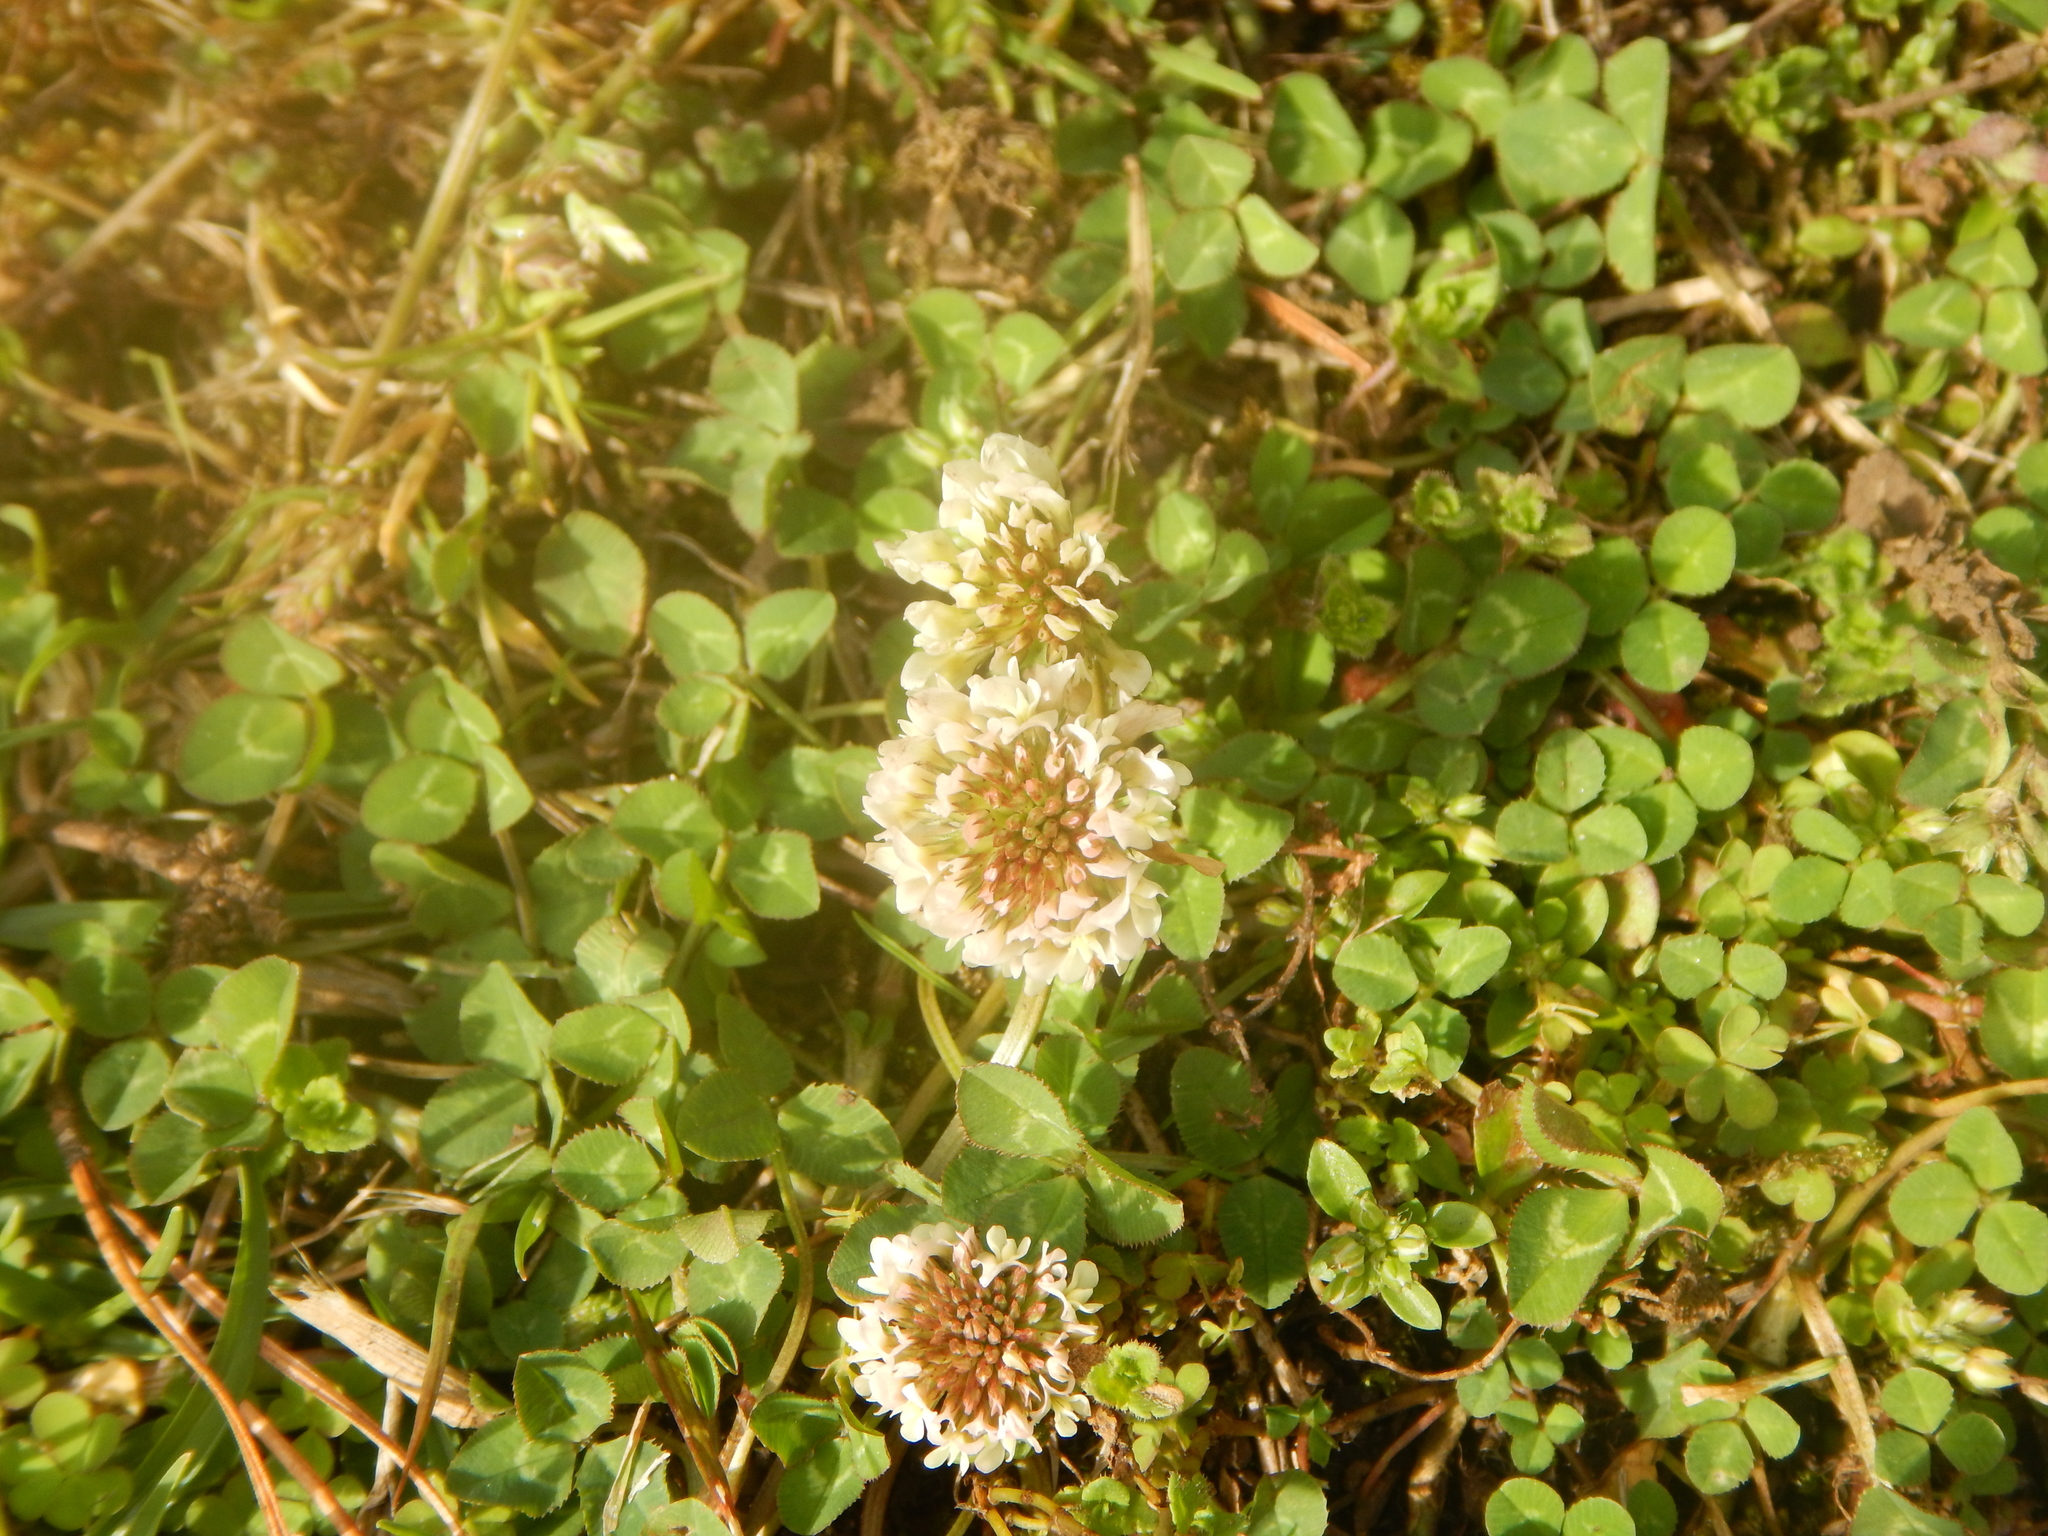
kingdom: Plantae
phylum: Tracheophyta
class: Magnoliopsida
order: Fabales
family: Fabaceae
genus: Trifolium
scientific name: Trifolium repens
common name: White clover
